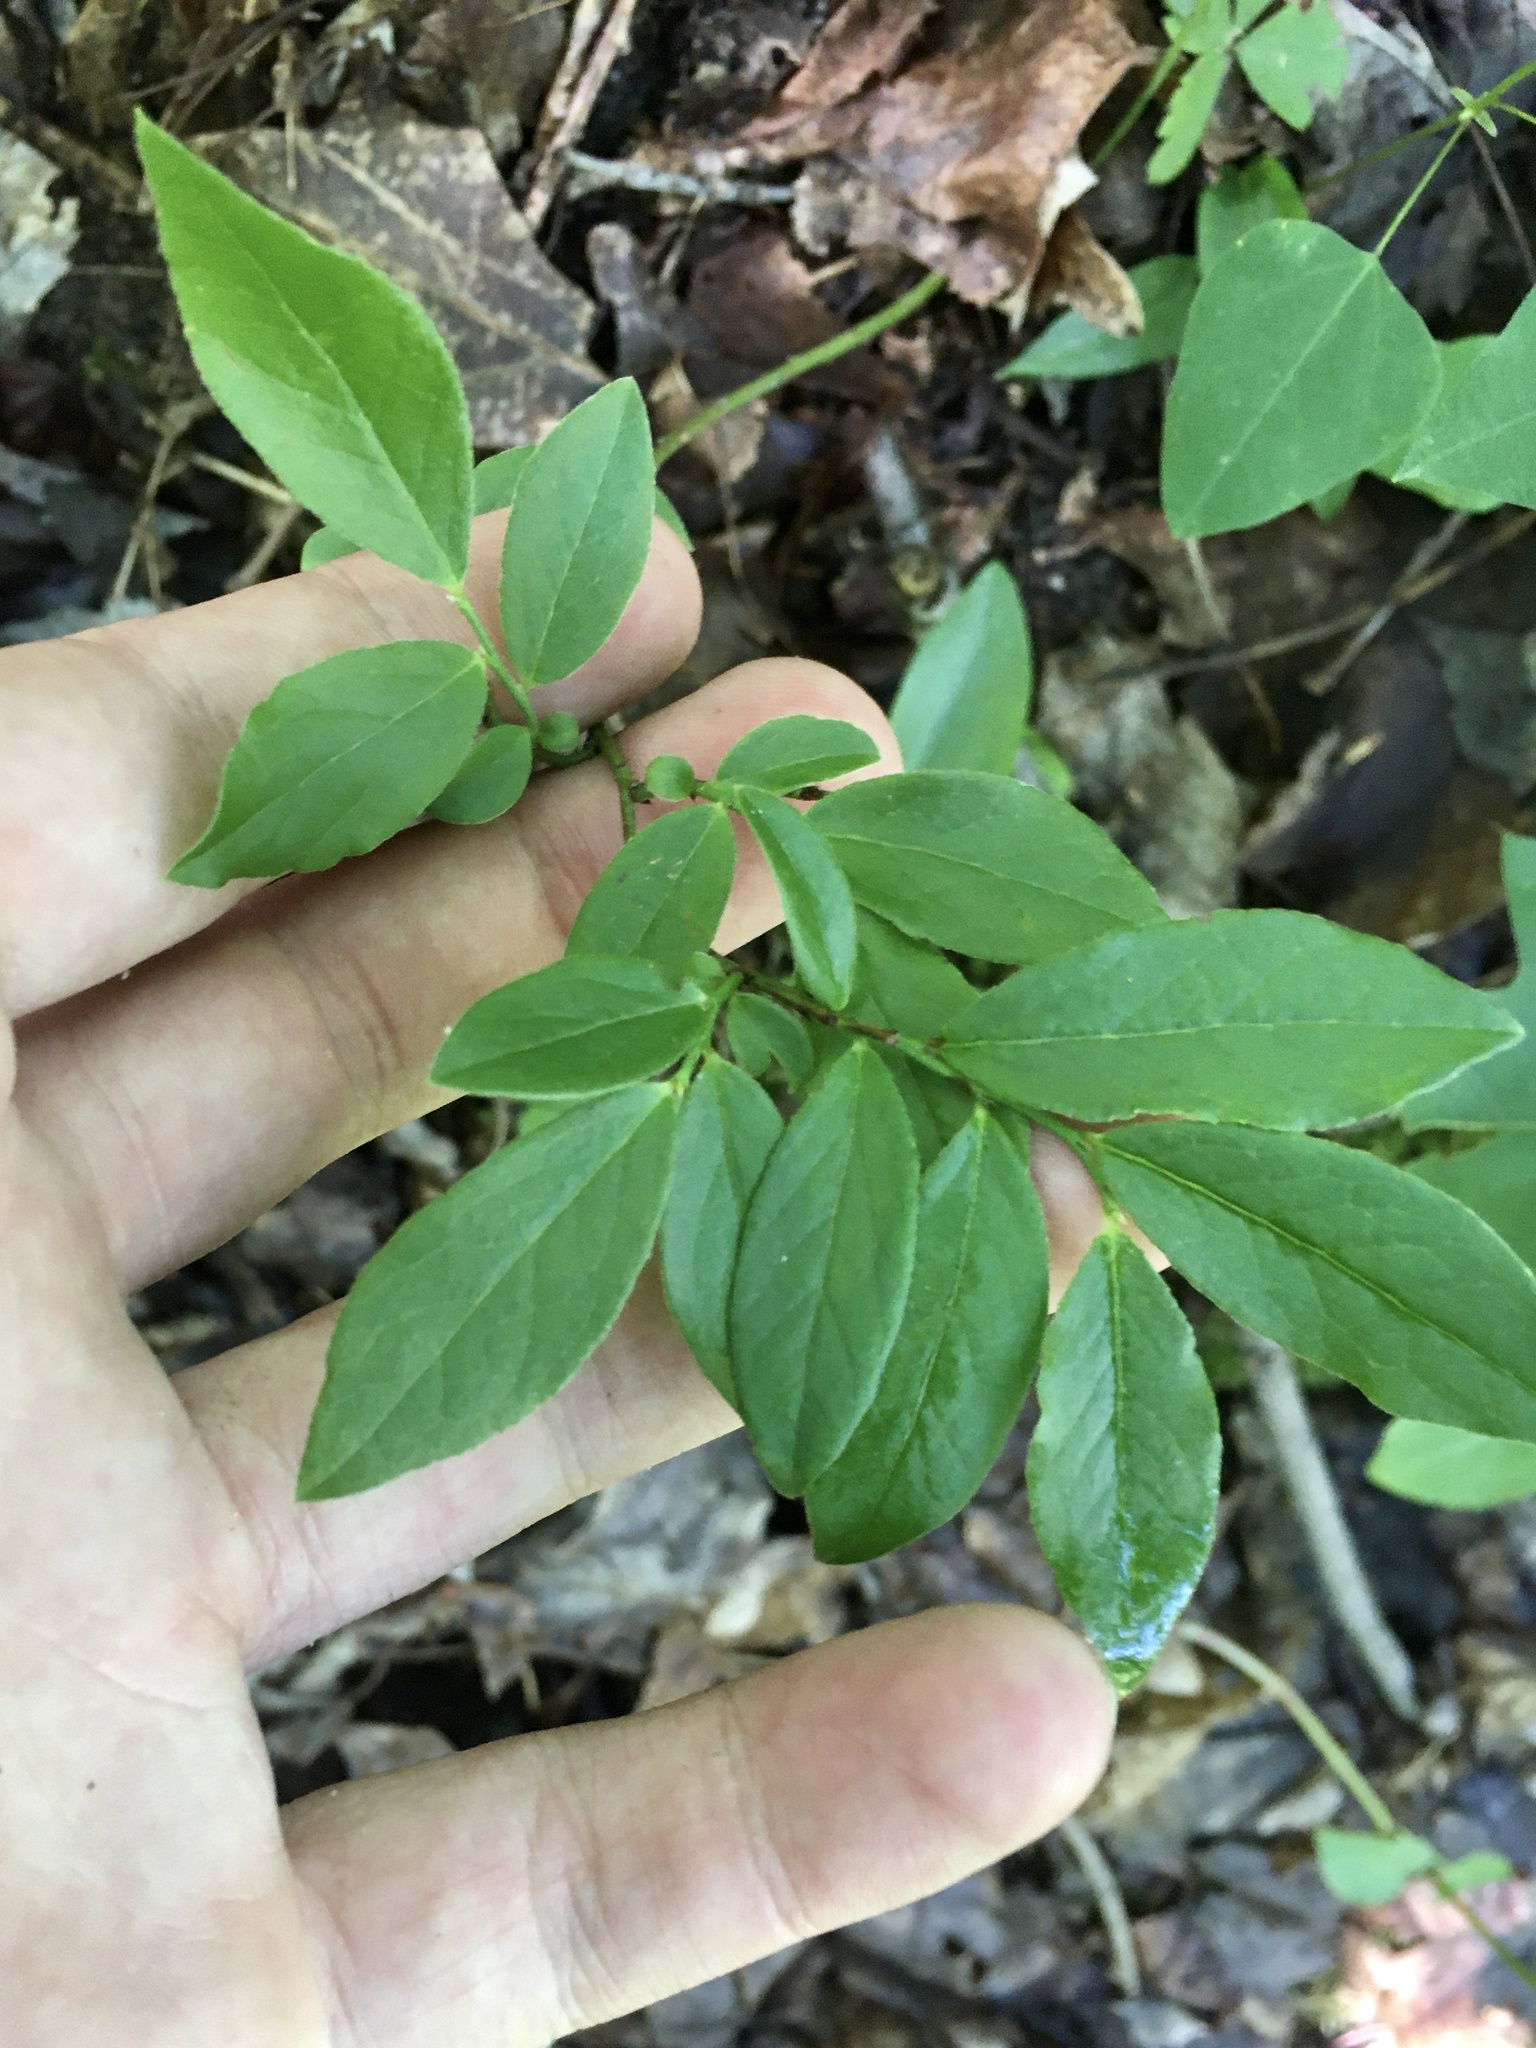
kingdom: Plantae
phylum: Tracheophyta
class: Magnoliopsida
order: Ericales
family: Ericaceae
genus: Vaccinium
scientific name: Vaccinium angustifolium
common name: Early lowbush blueberry
